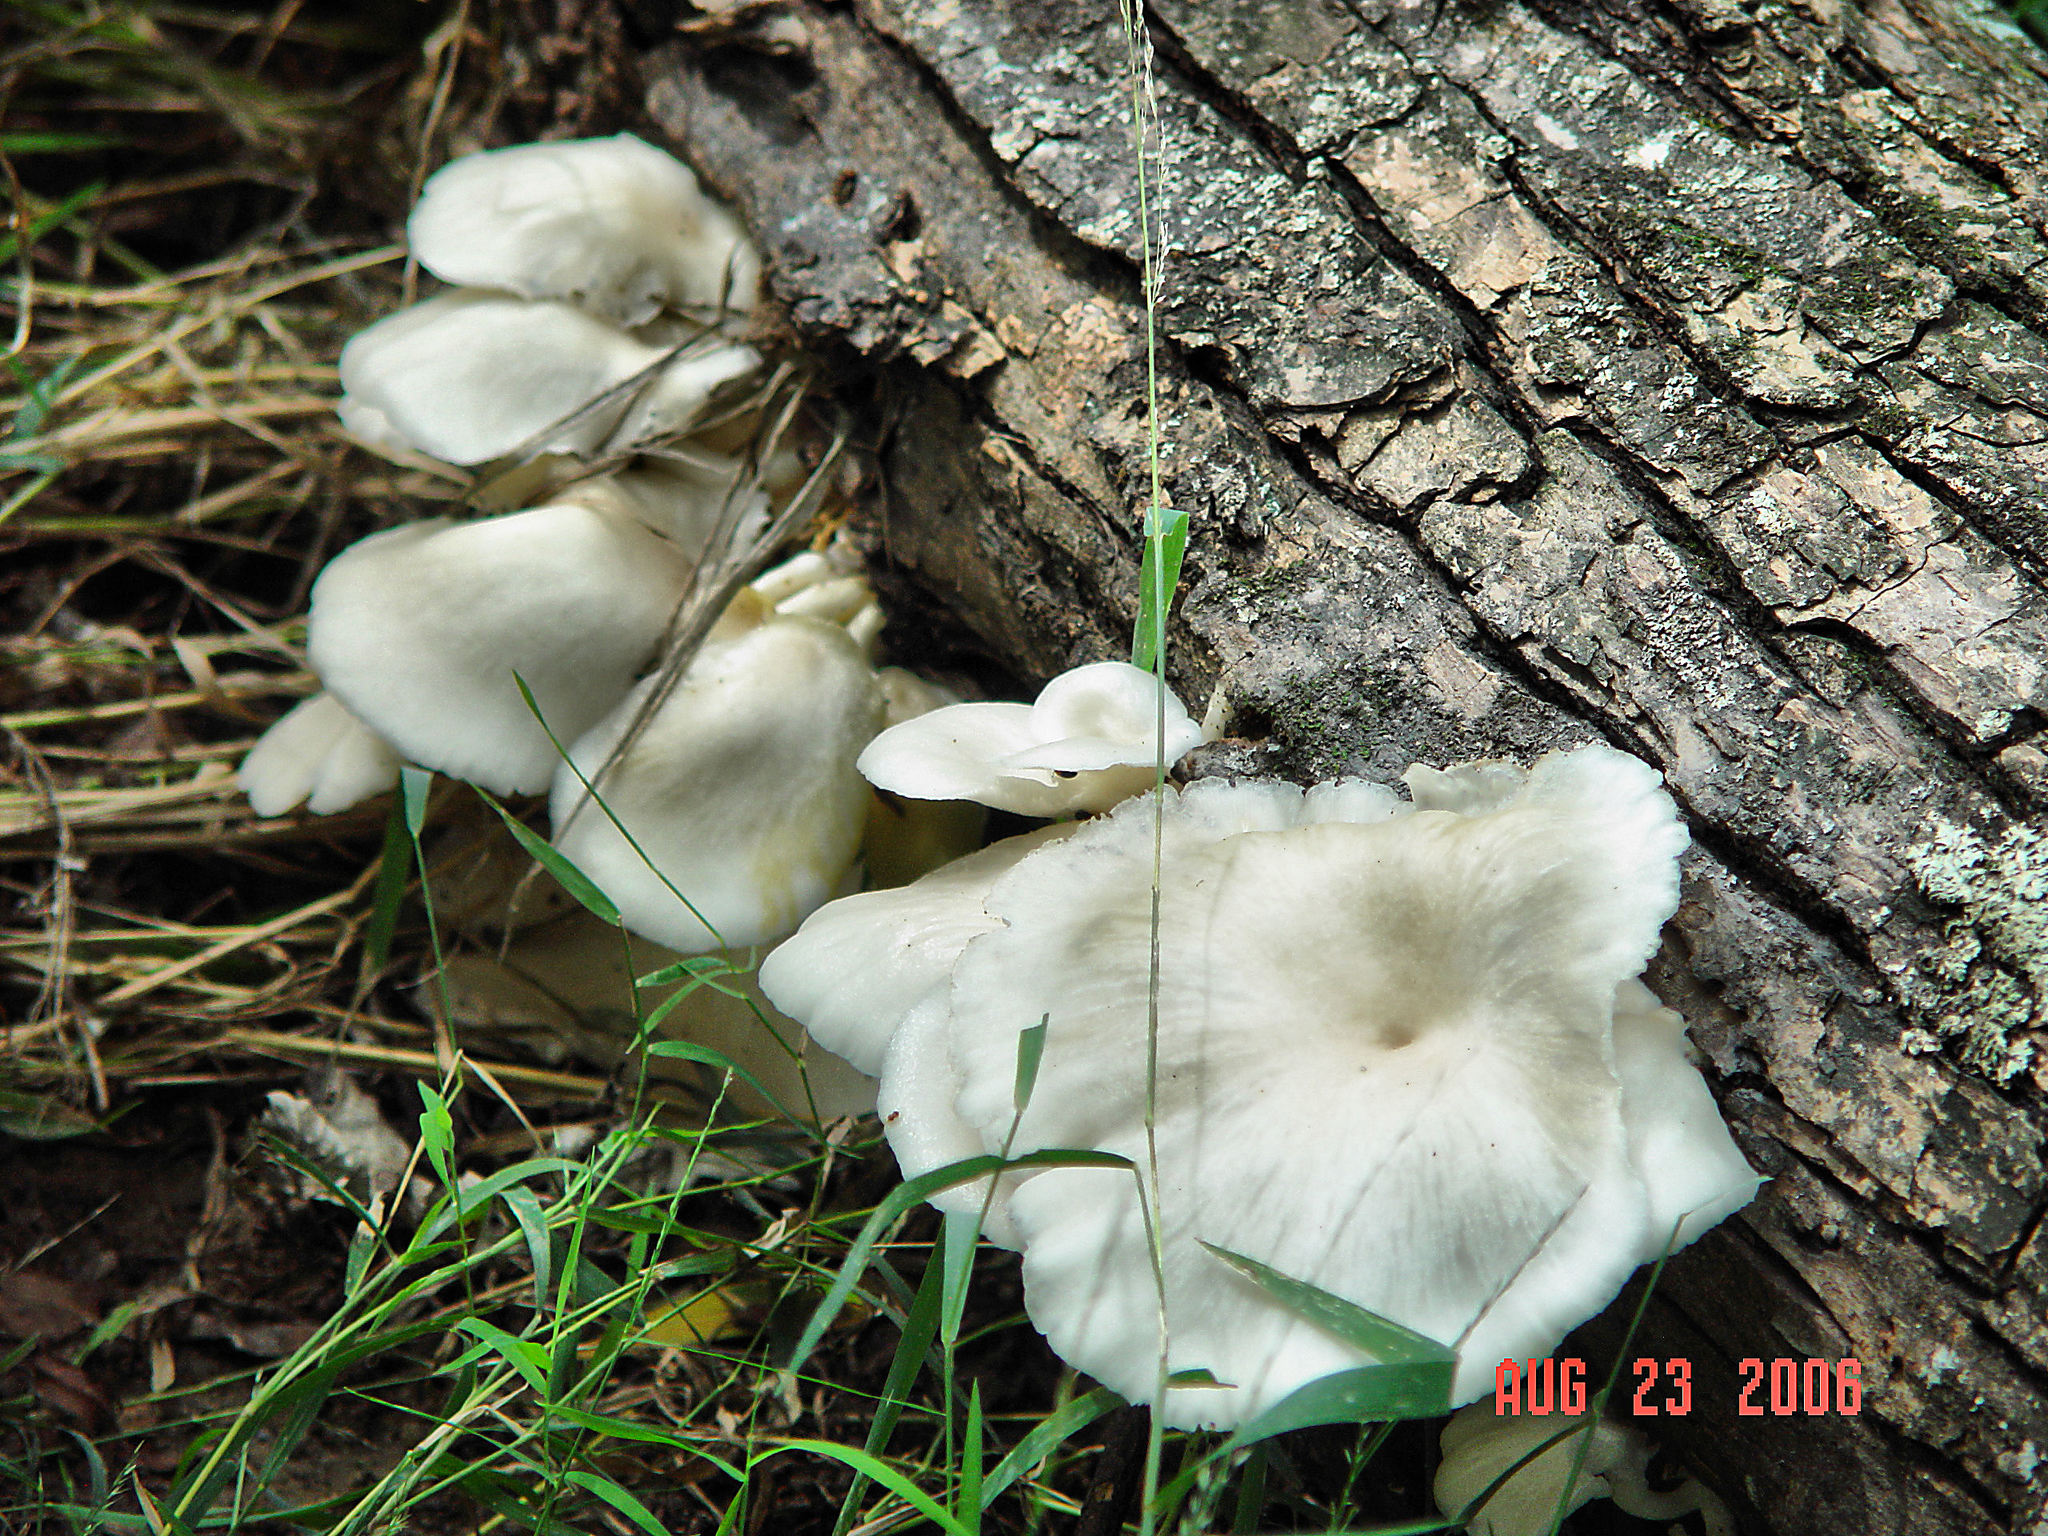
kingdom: Fungi
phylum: Basidiomycota
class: Agaricomycetes
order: Agaricales
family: Pleurotaceae
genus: Pleurotus
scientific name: Pleurotus pulmonarius
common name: Pale oyster
